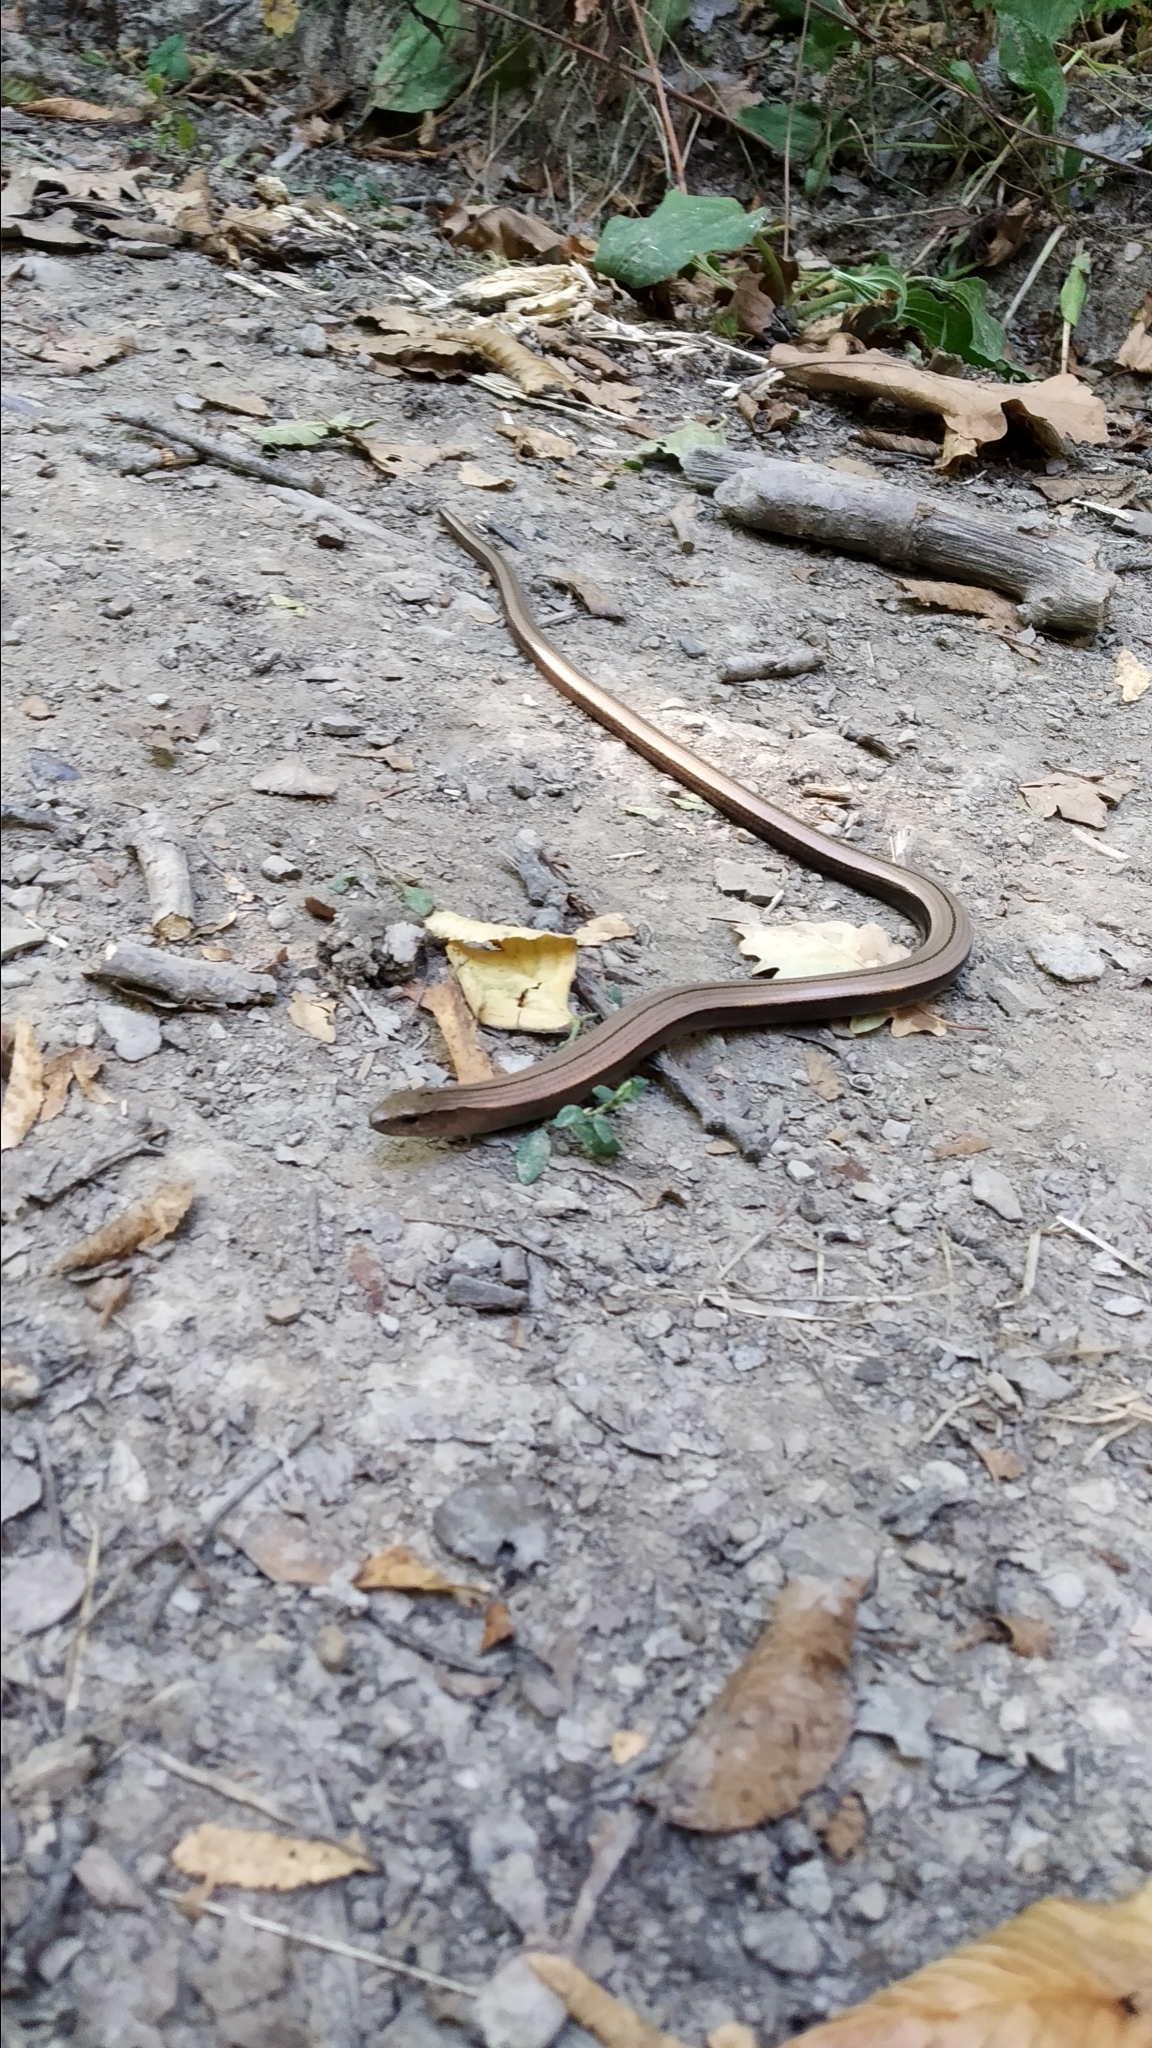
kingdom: Animalia
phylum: Chordata
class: Squamata
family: Anguidae
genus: Anguis
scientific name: Anguis colchica
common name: Slow worm
